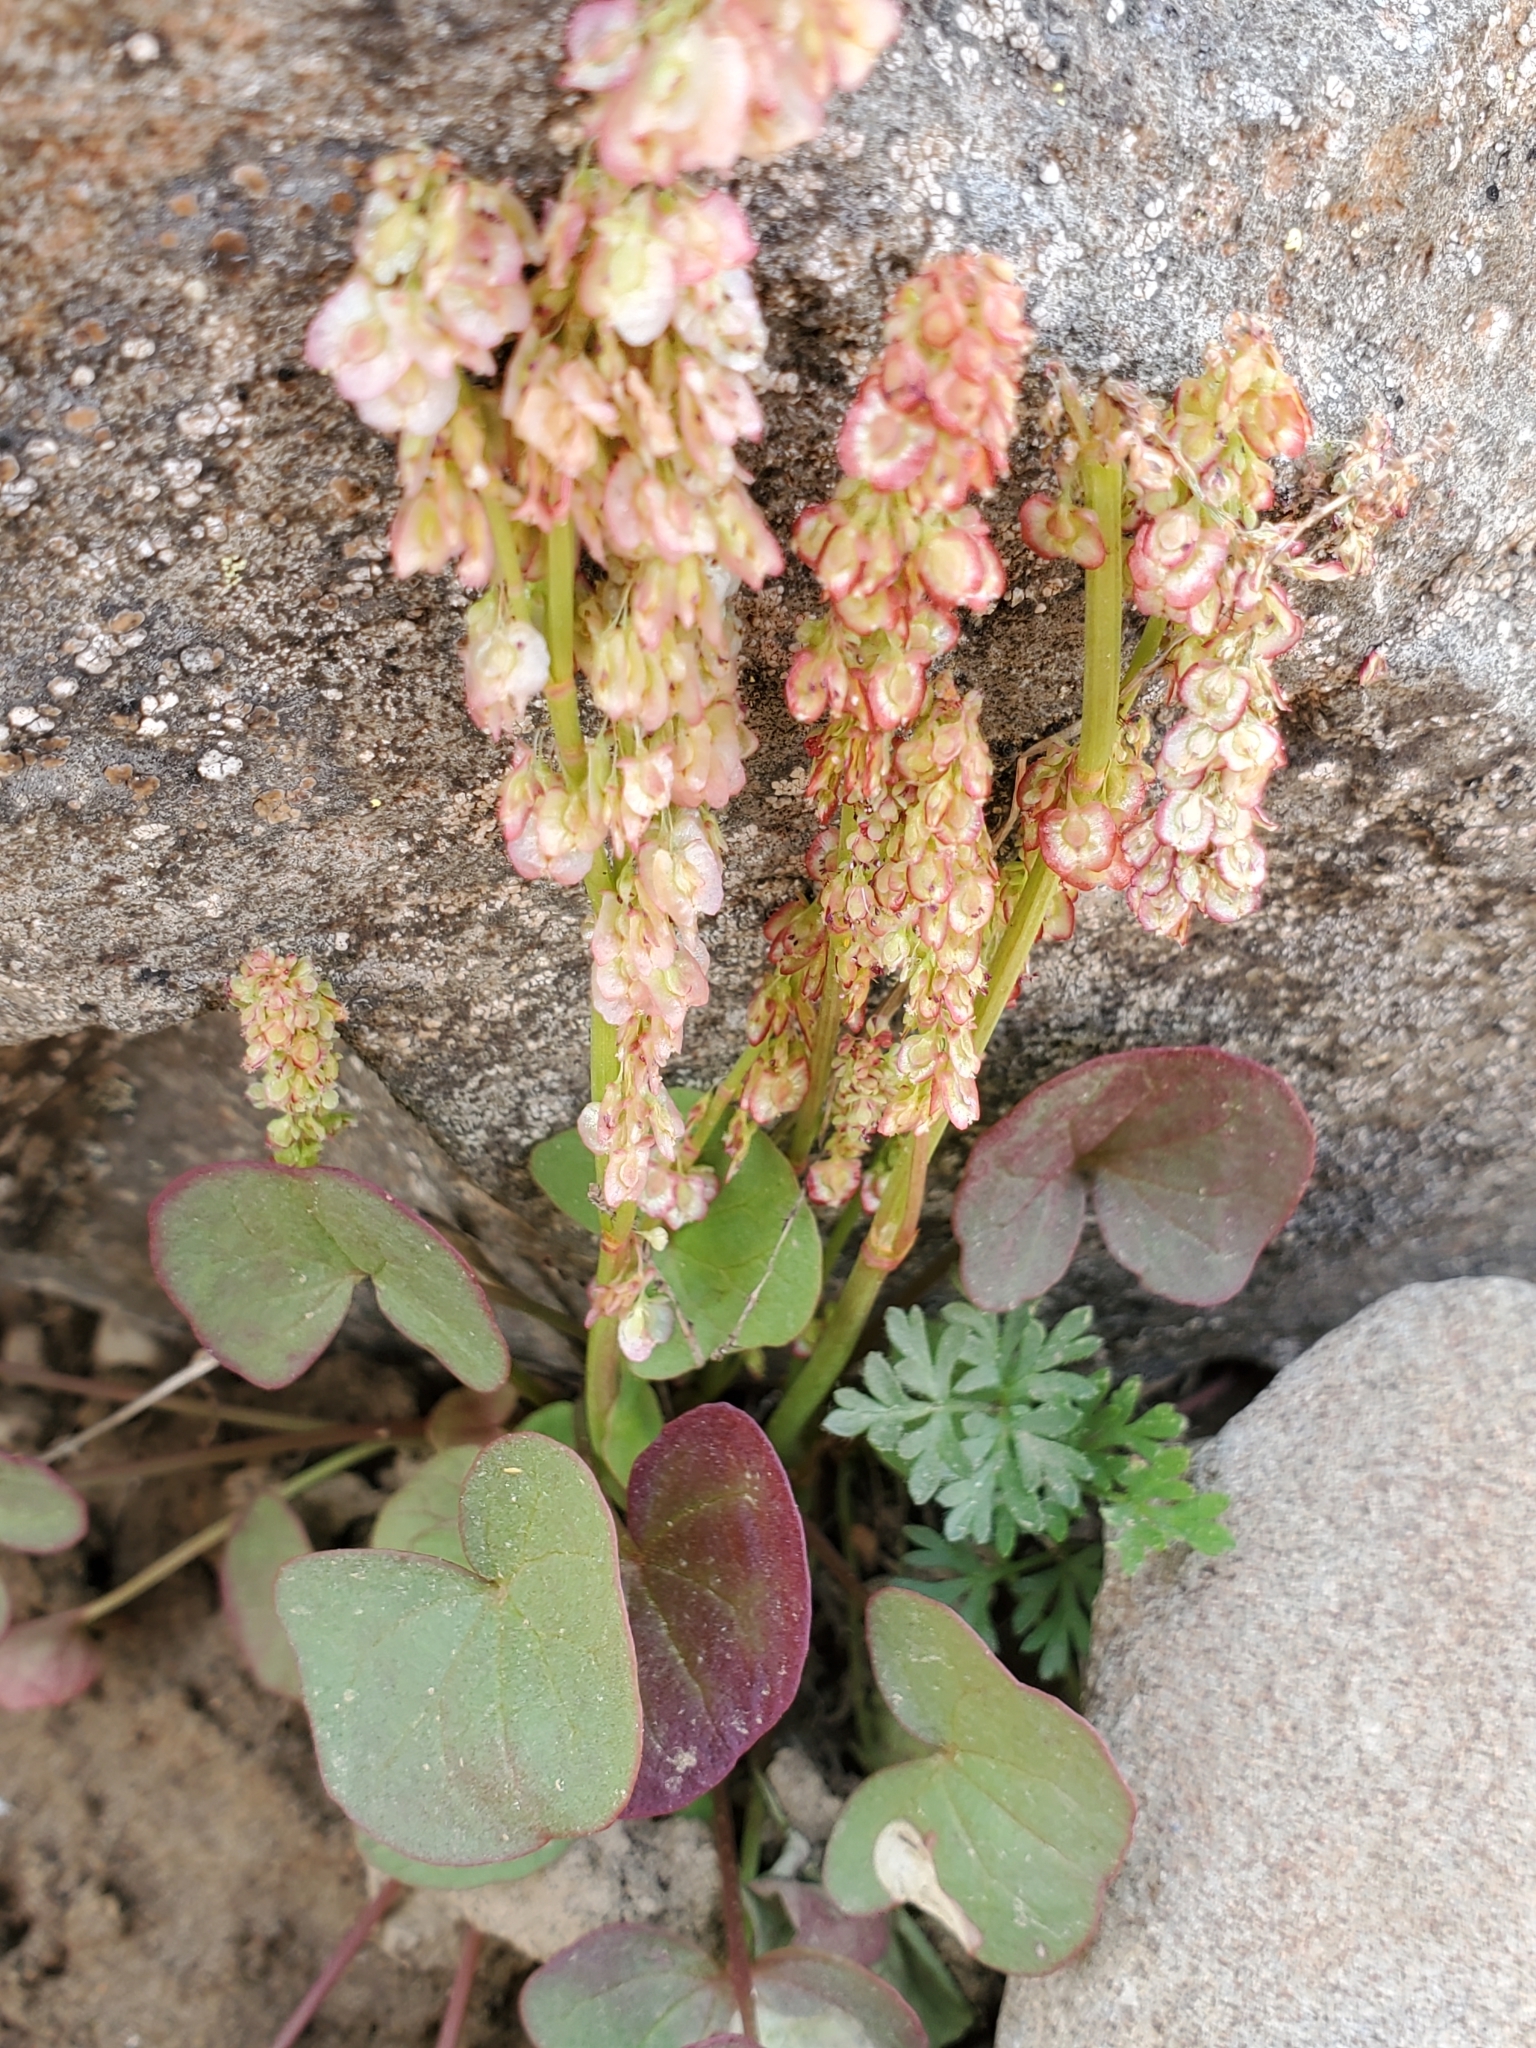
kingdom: Plantae
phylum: Tracheophyta
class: Magnoliopsida
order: Caryophyllales
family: Polygonaceae
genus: Oxyria
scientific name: Oxyria digyna
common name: Alpine mountain-sorrel
